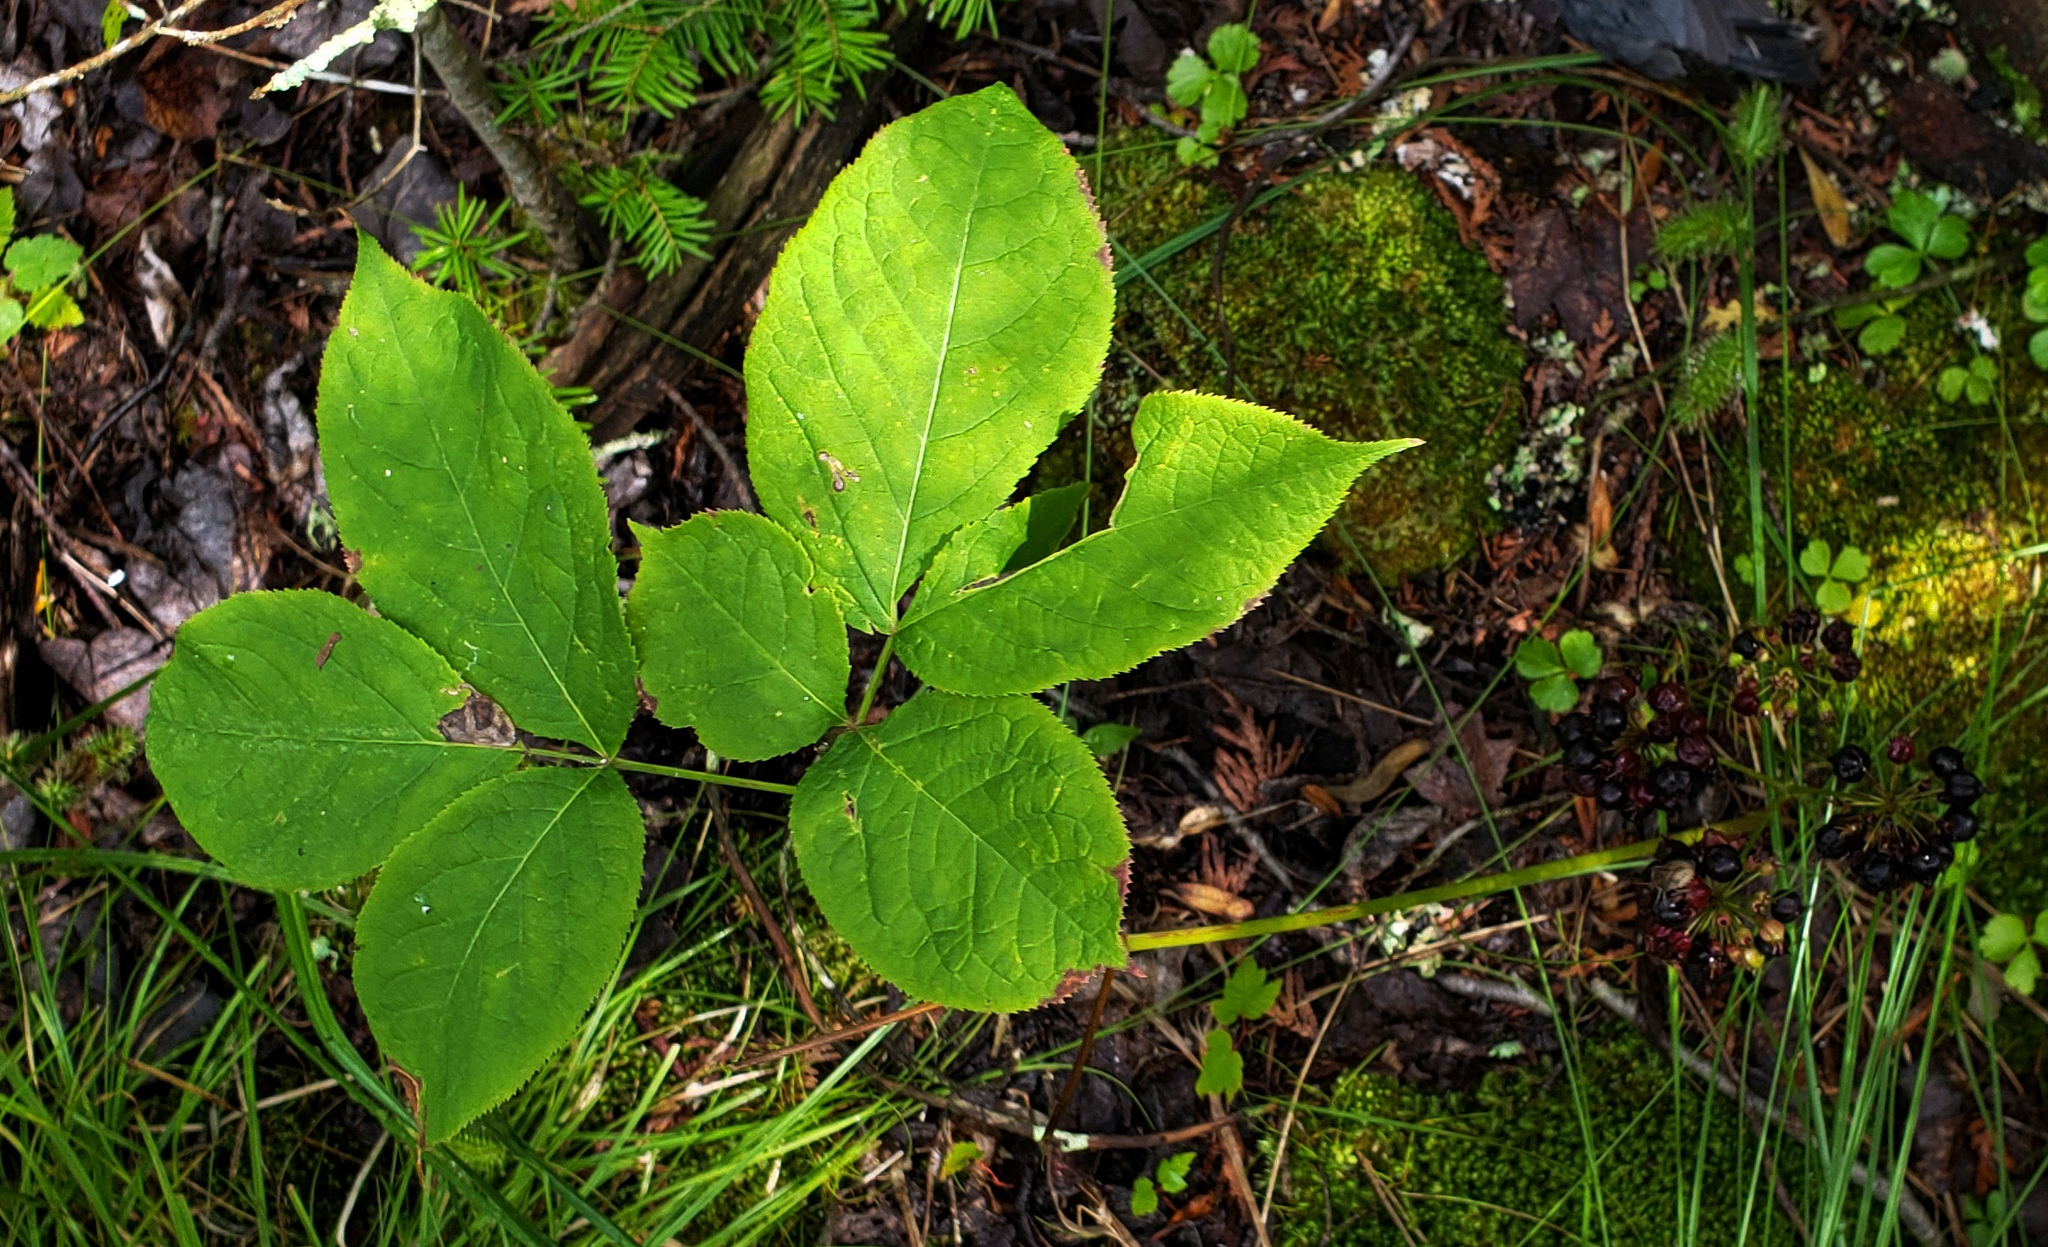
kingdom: Plantae
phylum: Tracheophyta
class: Magnoliopsida
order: Apiales
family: Araliaceae
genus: Aralia
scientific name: Aralia nudicaulis
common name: Wild sarsaparilla
